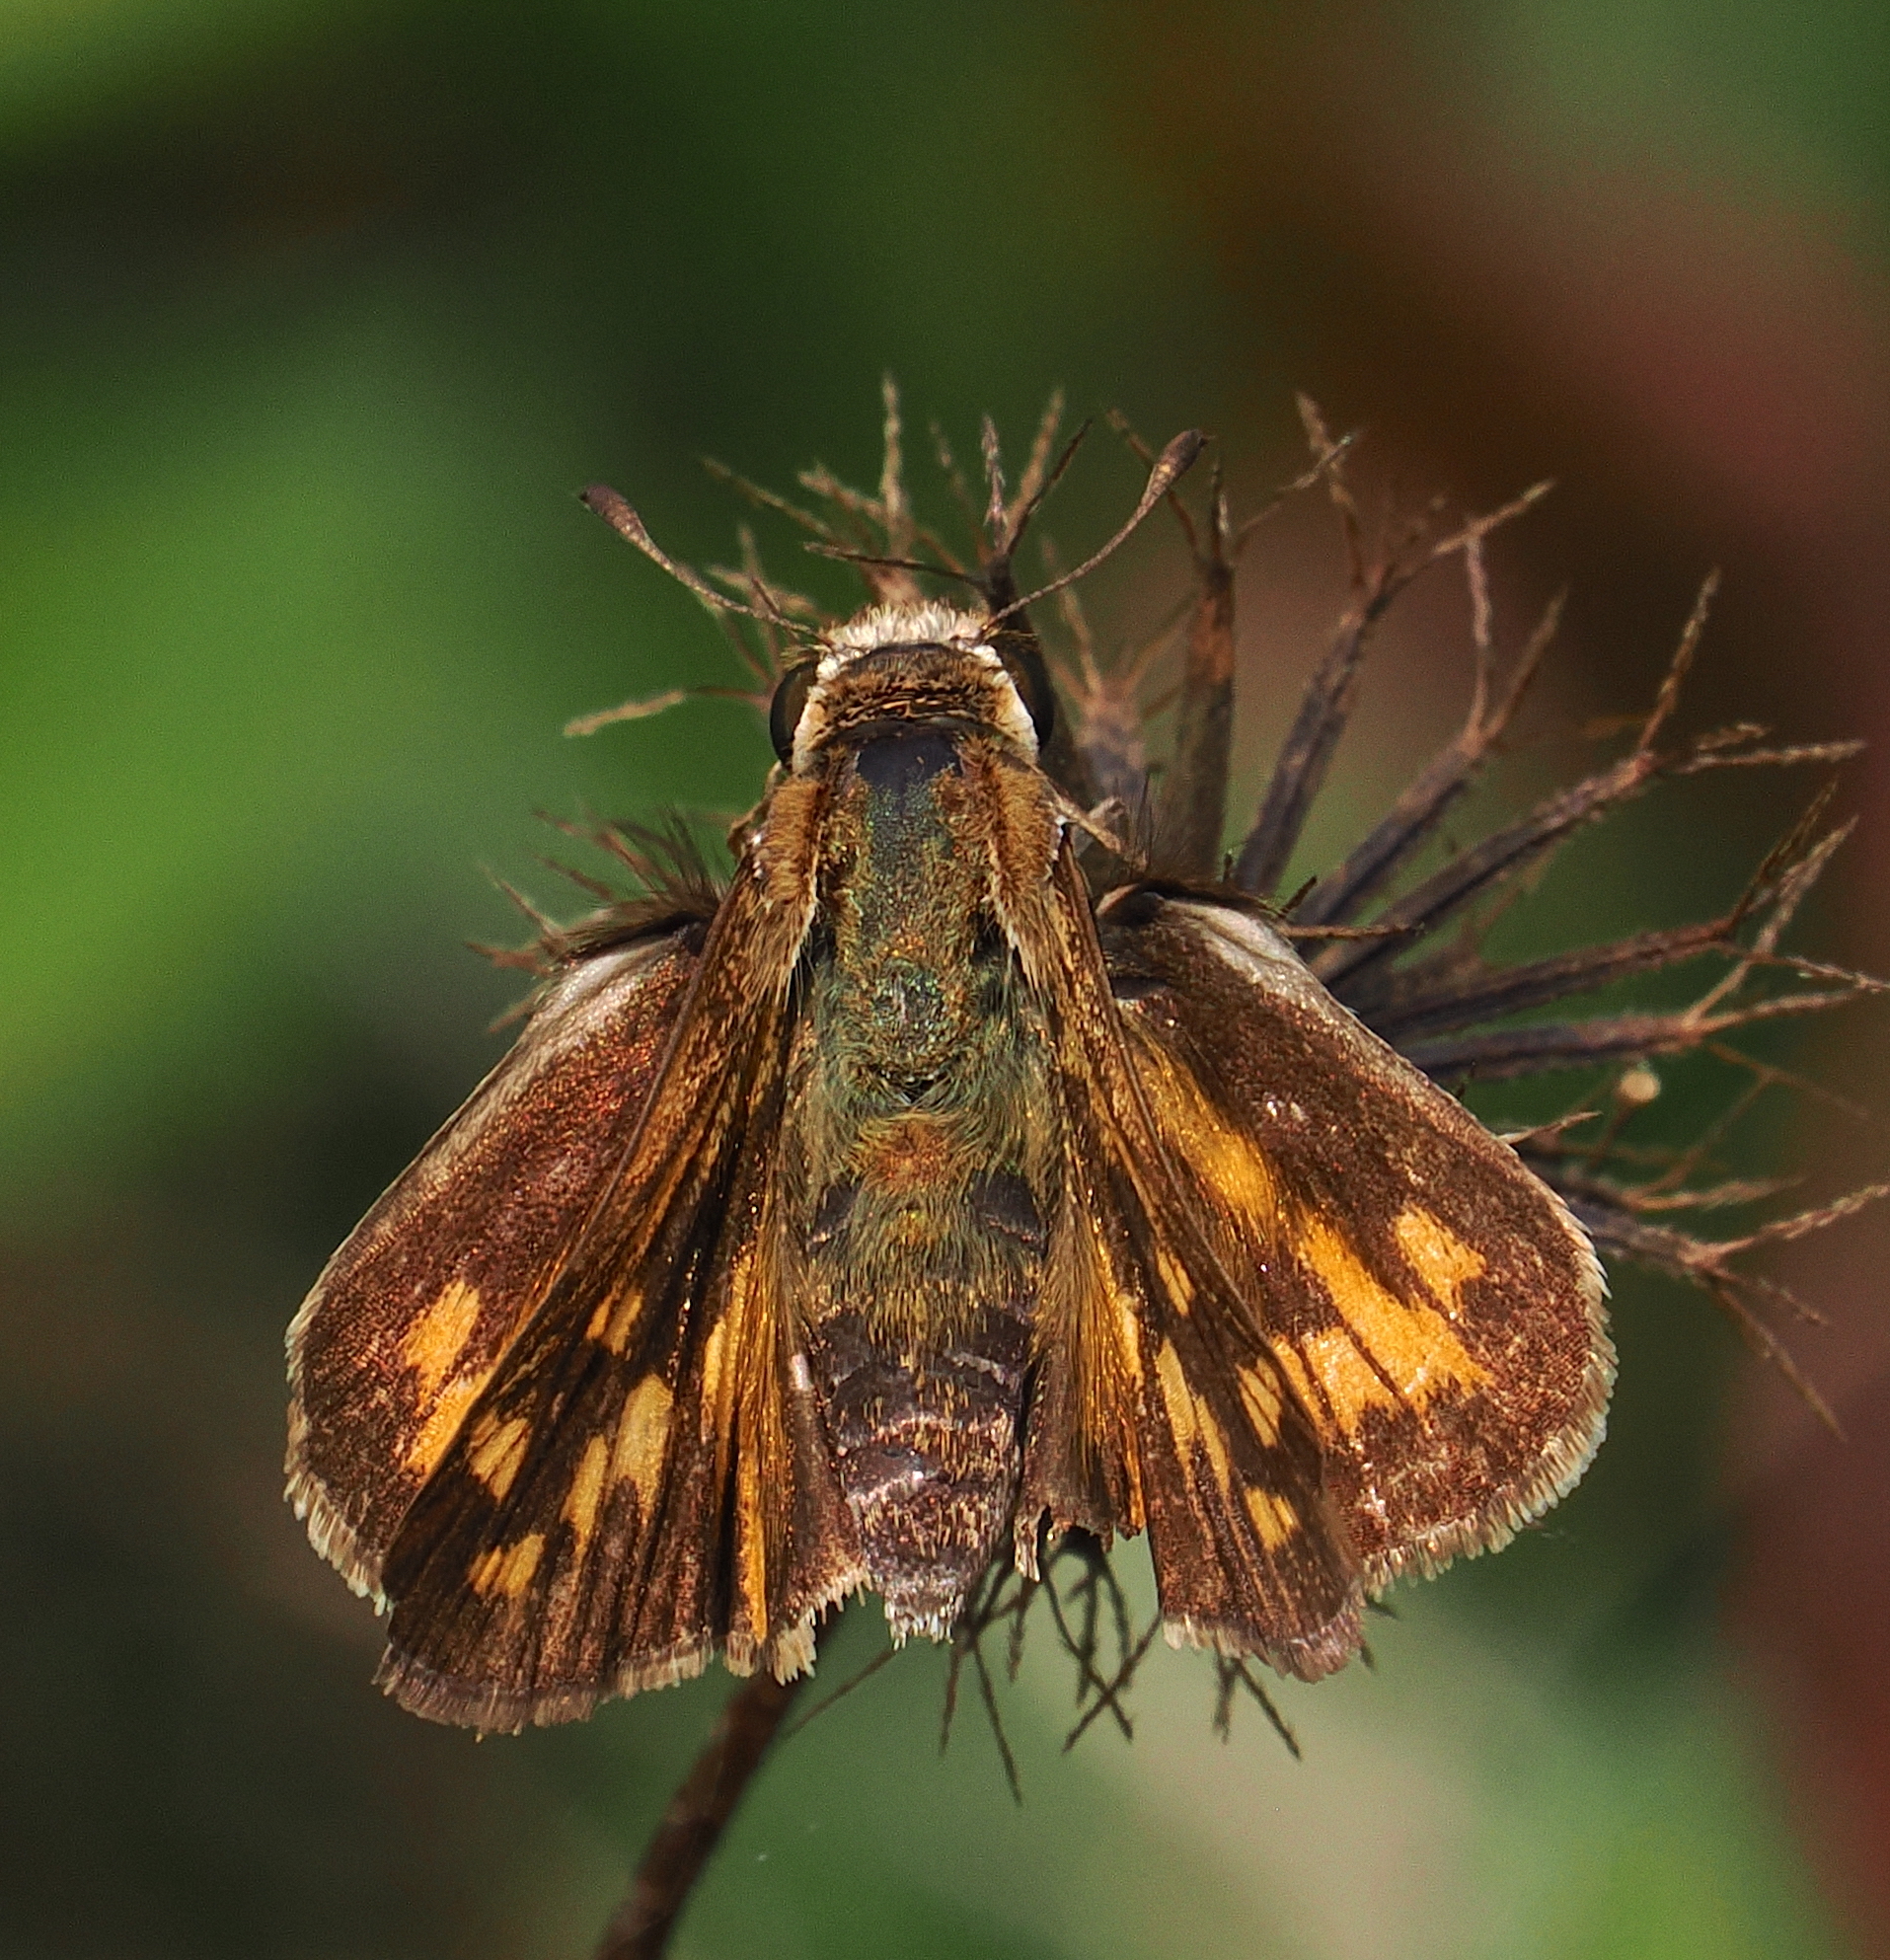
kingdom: Animalia
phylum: Arthropoda
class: Insecta
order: Lepidoptera
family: Hesperiidae
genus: Potanthus
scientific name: Potanthus trachala
